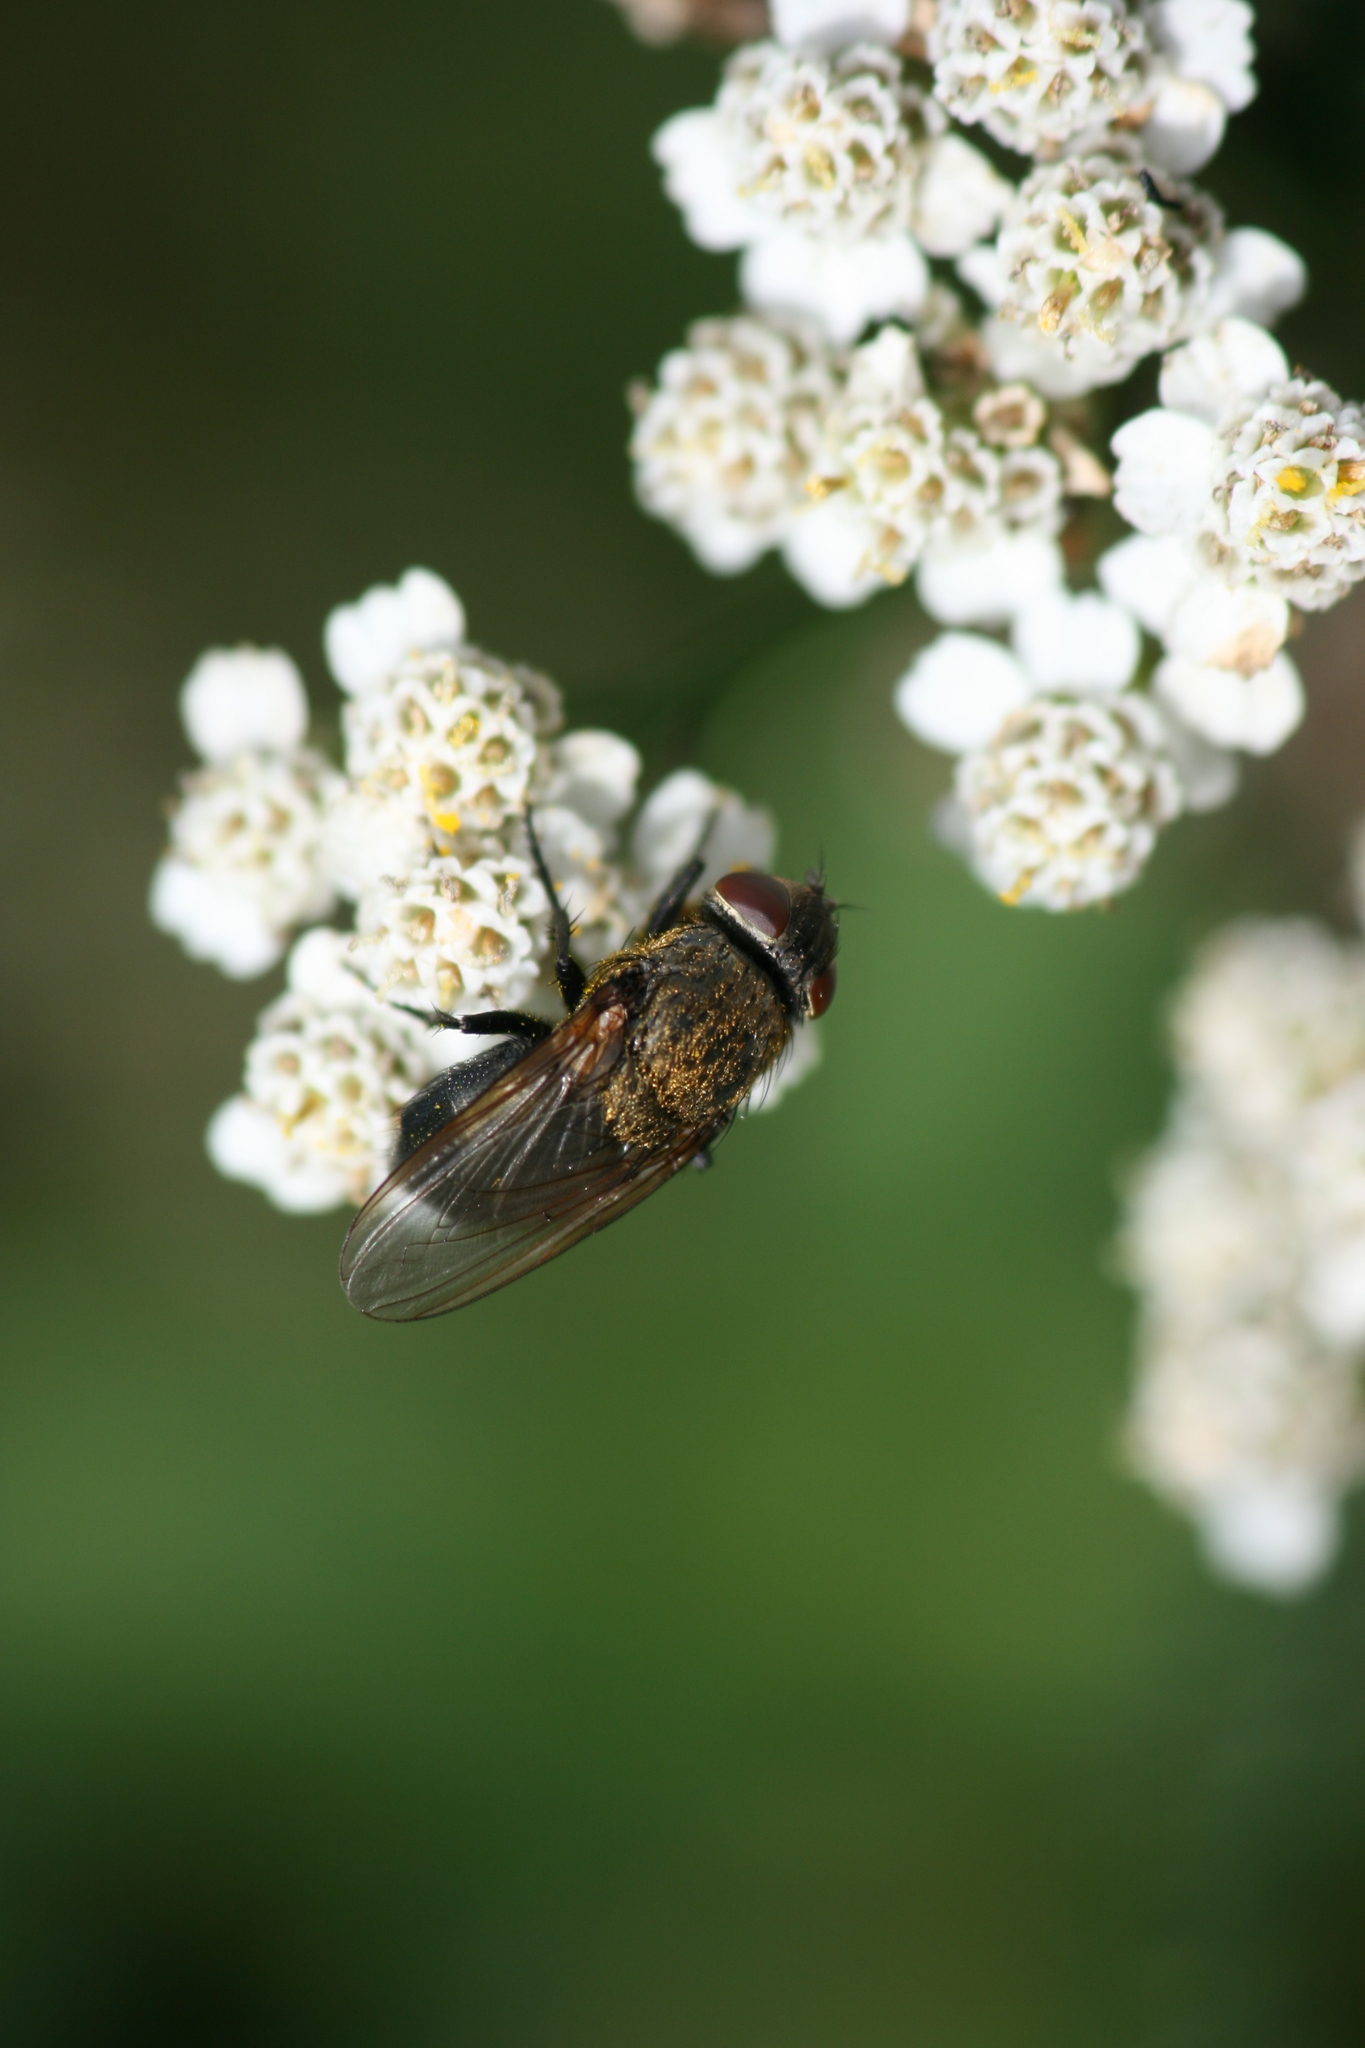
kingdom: Animalia
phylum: Arthropoda
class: Insecta
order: Diptera
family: Polleniidae
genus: Pollenia
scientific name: Pollenia amentaria
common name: Black-bellied clusterfly
